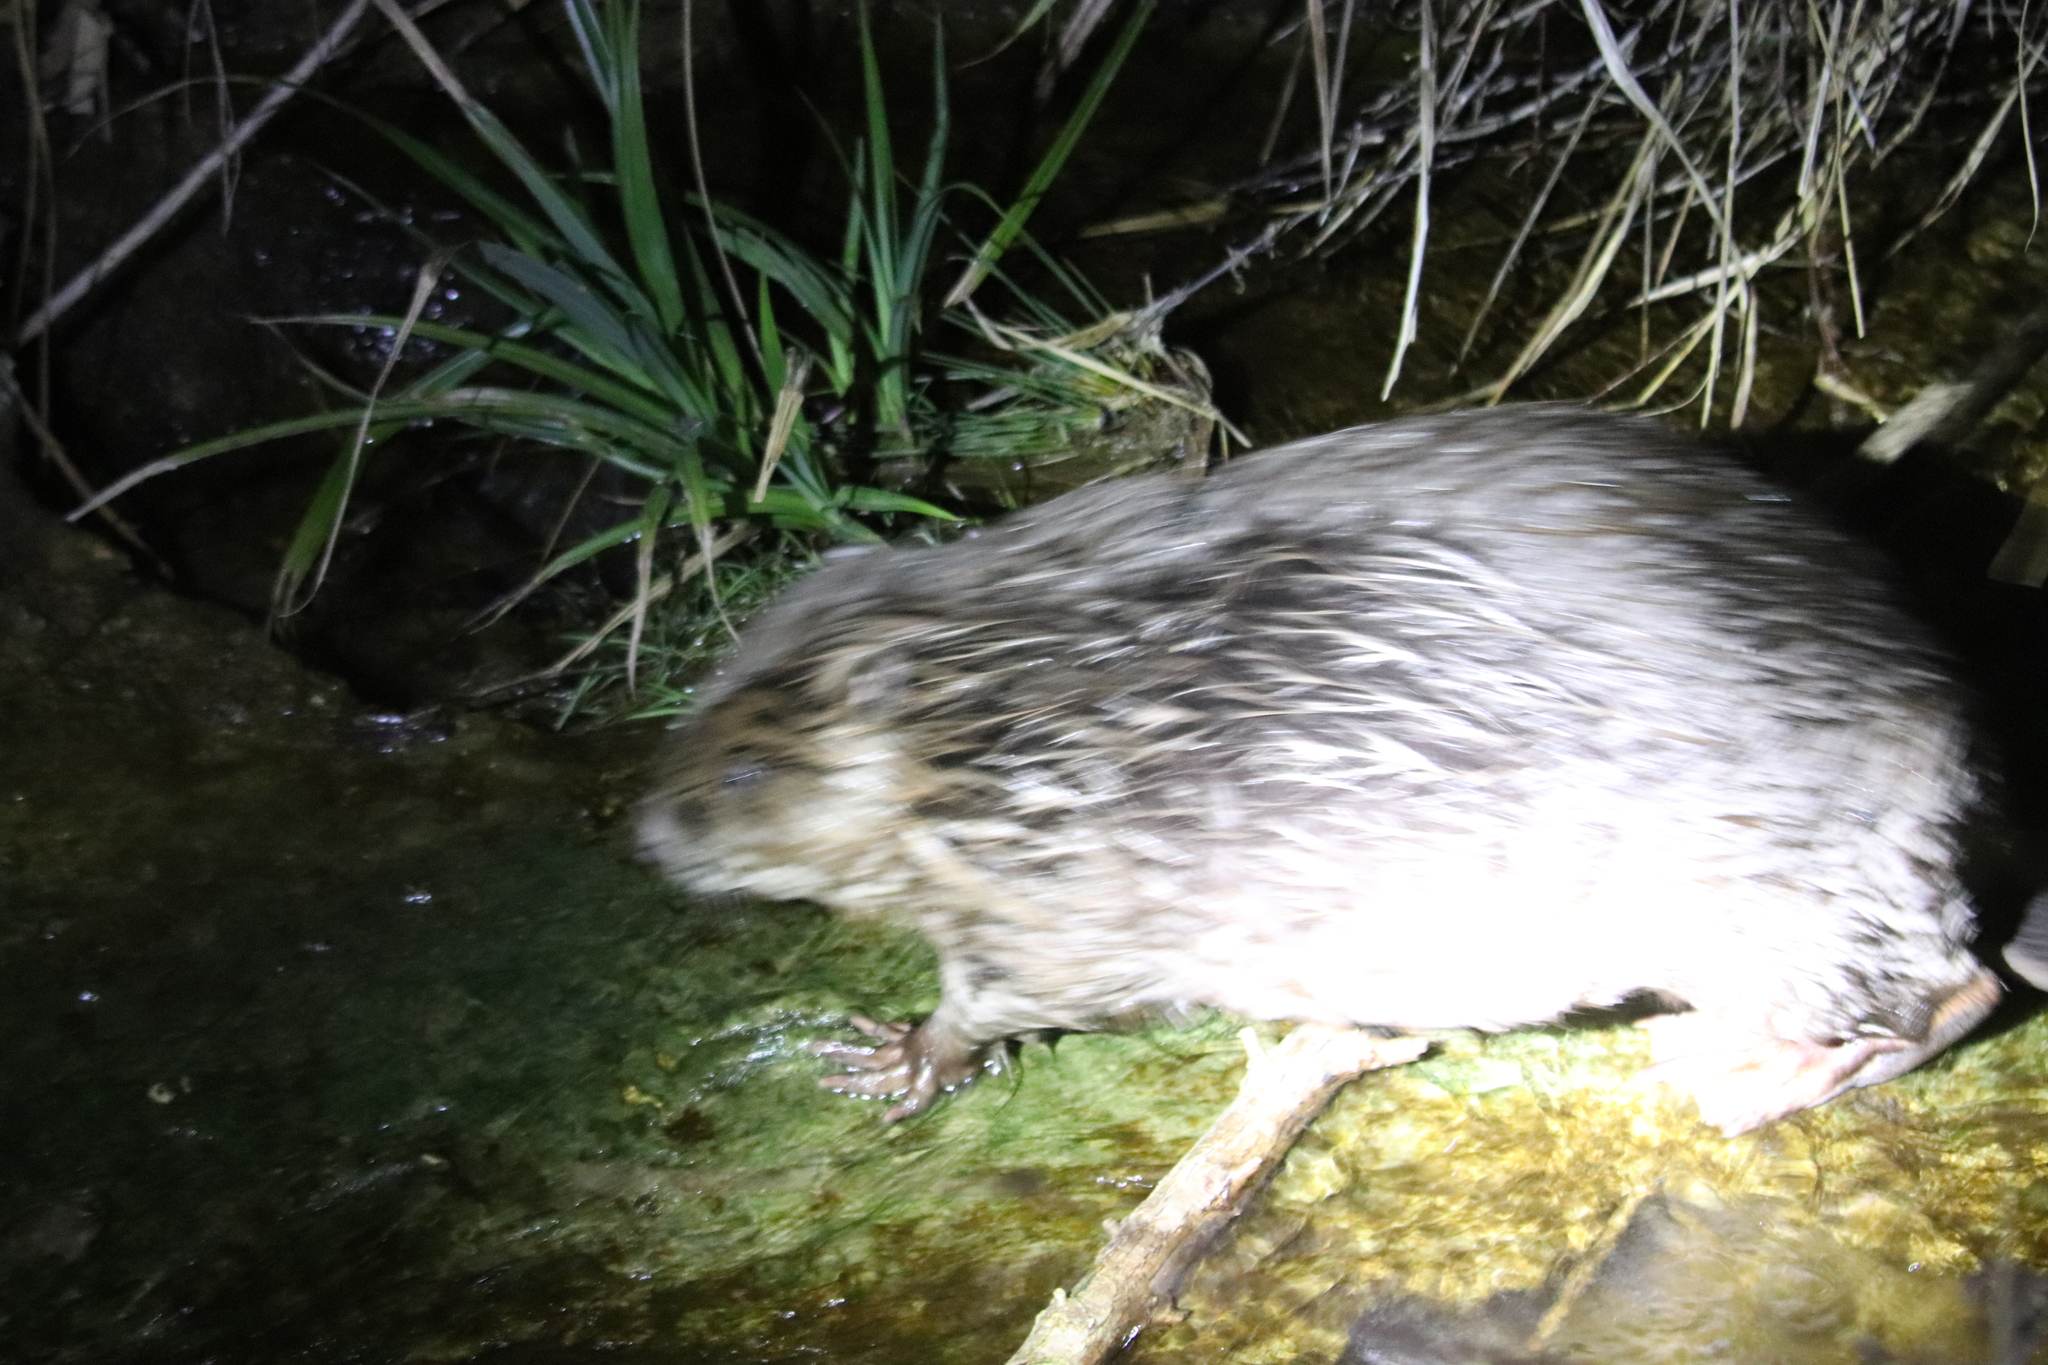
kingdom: Animalia
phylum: Chordata
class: Mammalia
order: Rodentia
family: Castoridae
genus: Castor
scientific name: Castor fiber
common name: Eurasian beaver
